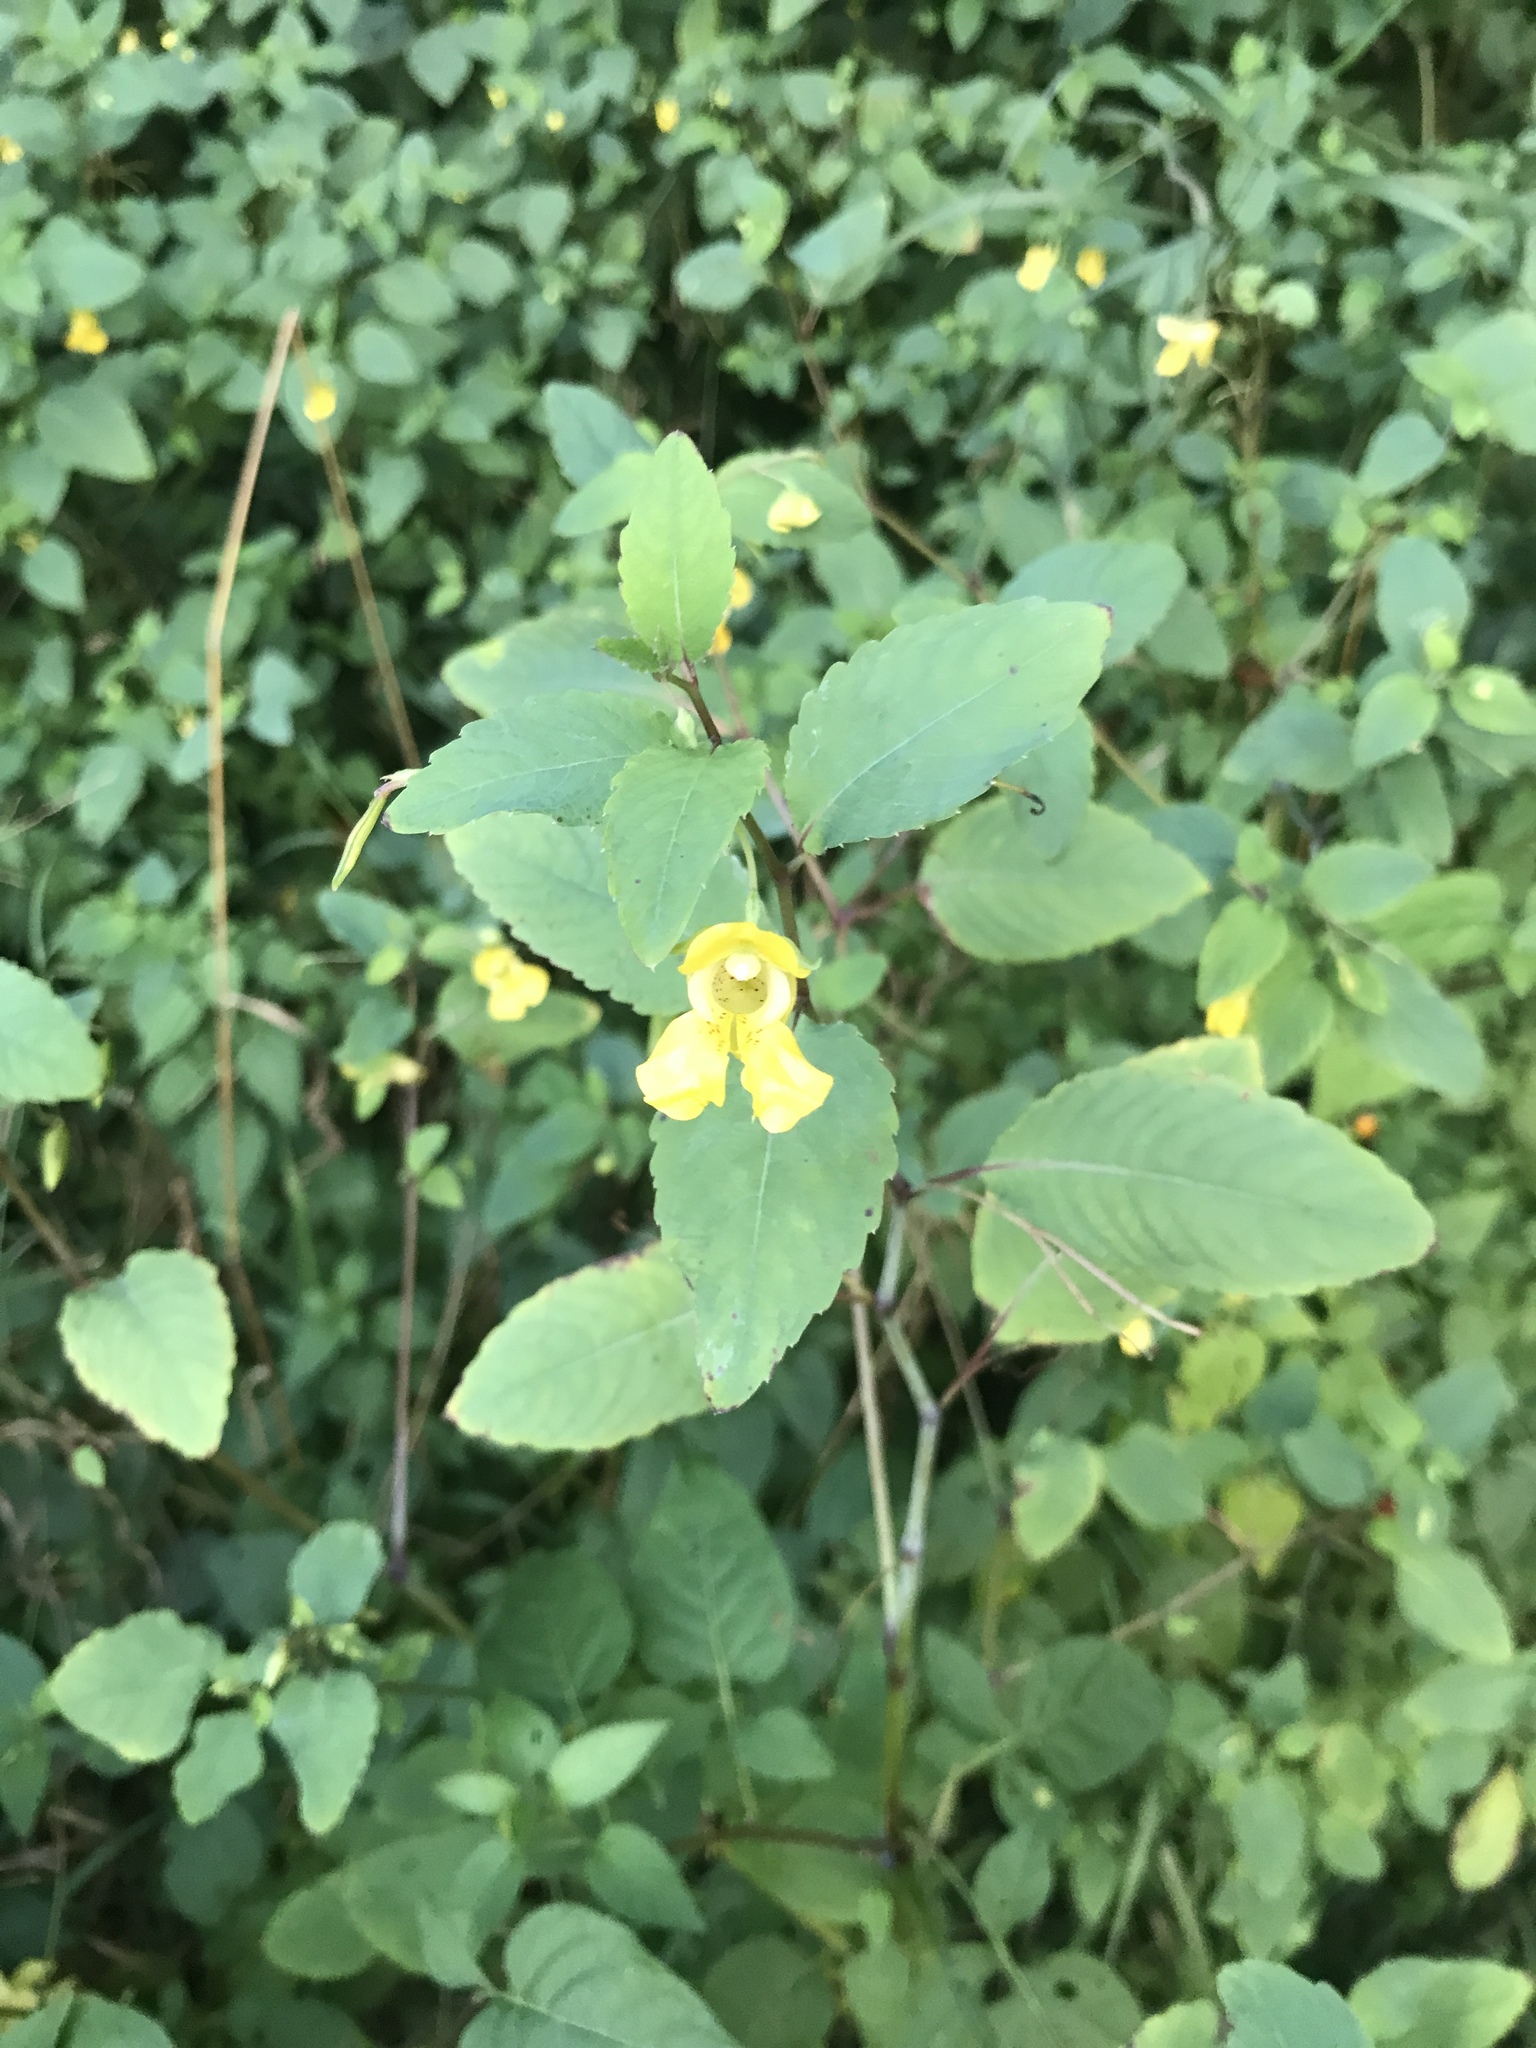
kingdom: Plantae
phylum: Tracheophyta
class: Magnoliopsida
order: Ericales
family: Balsaminaceae
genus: Impatiens
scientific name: Impatiens pallida
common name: Pale snapweed
